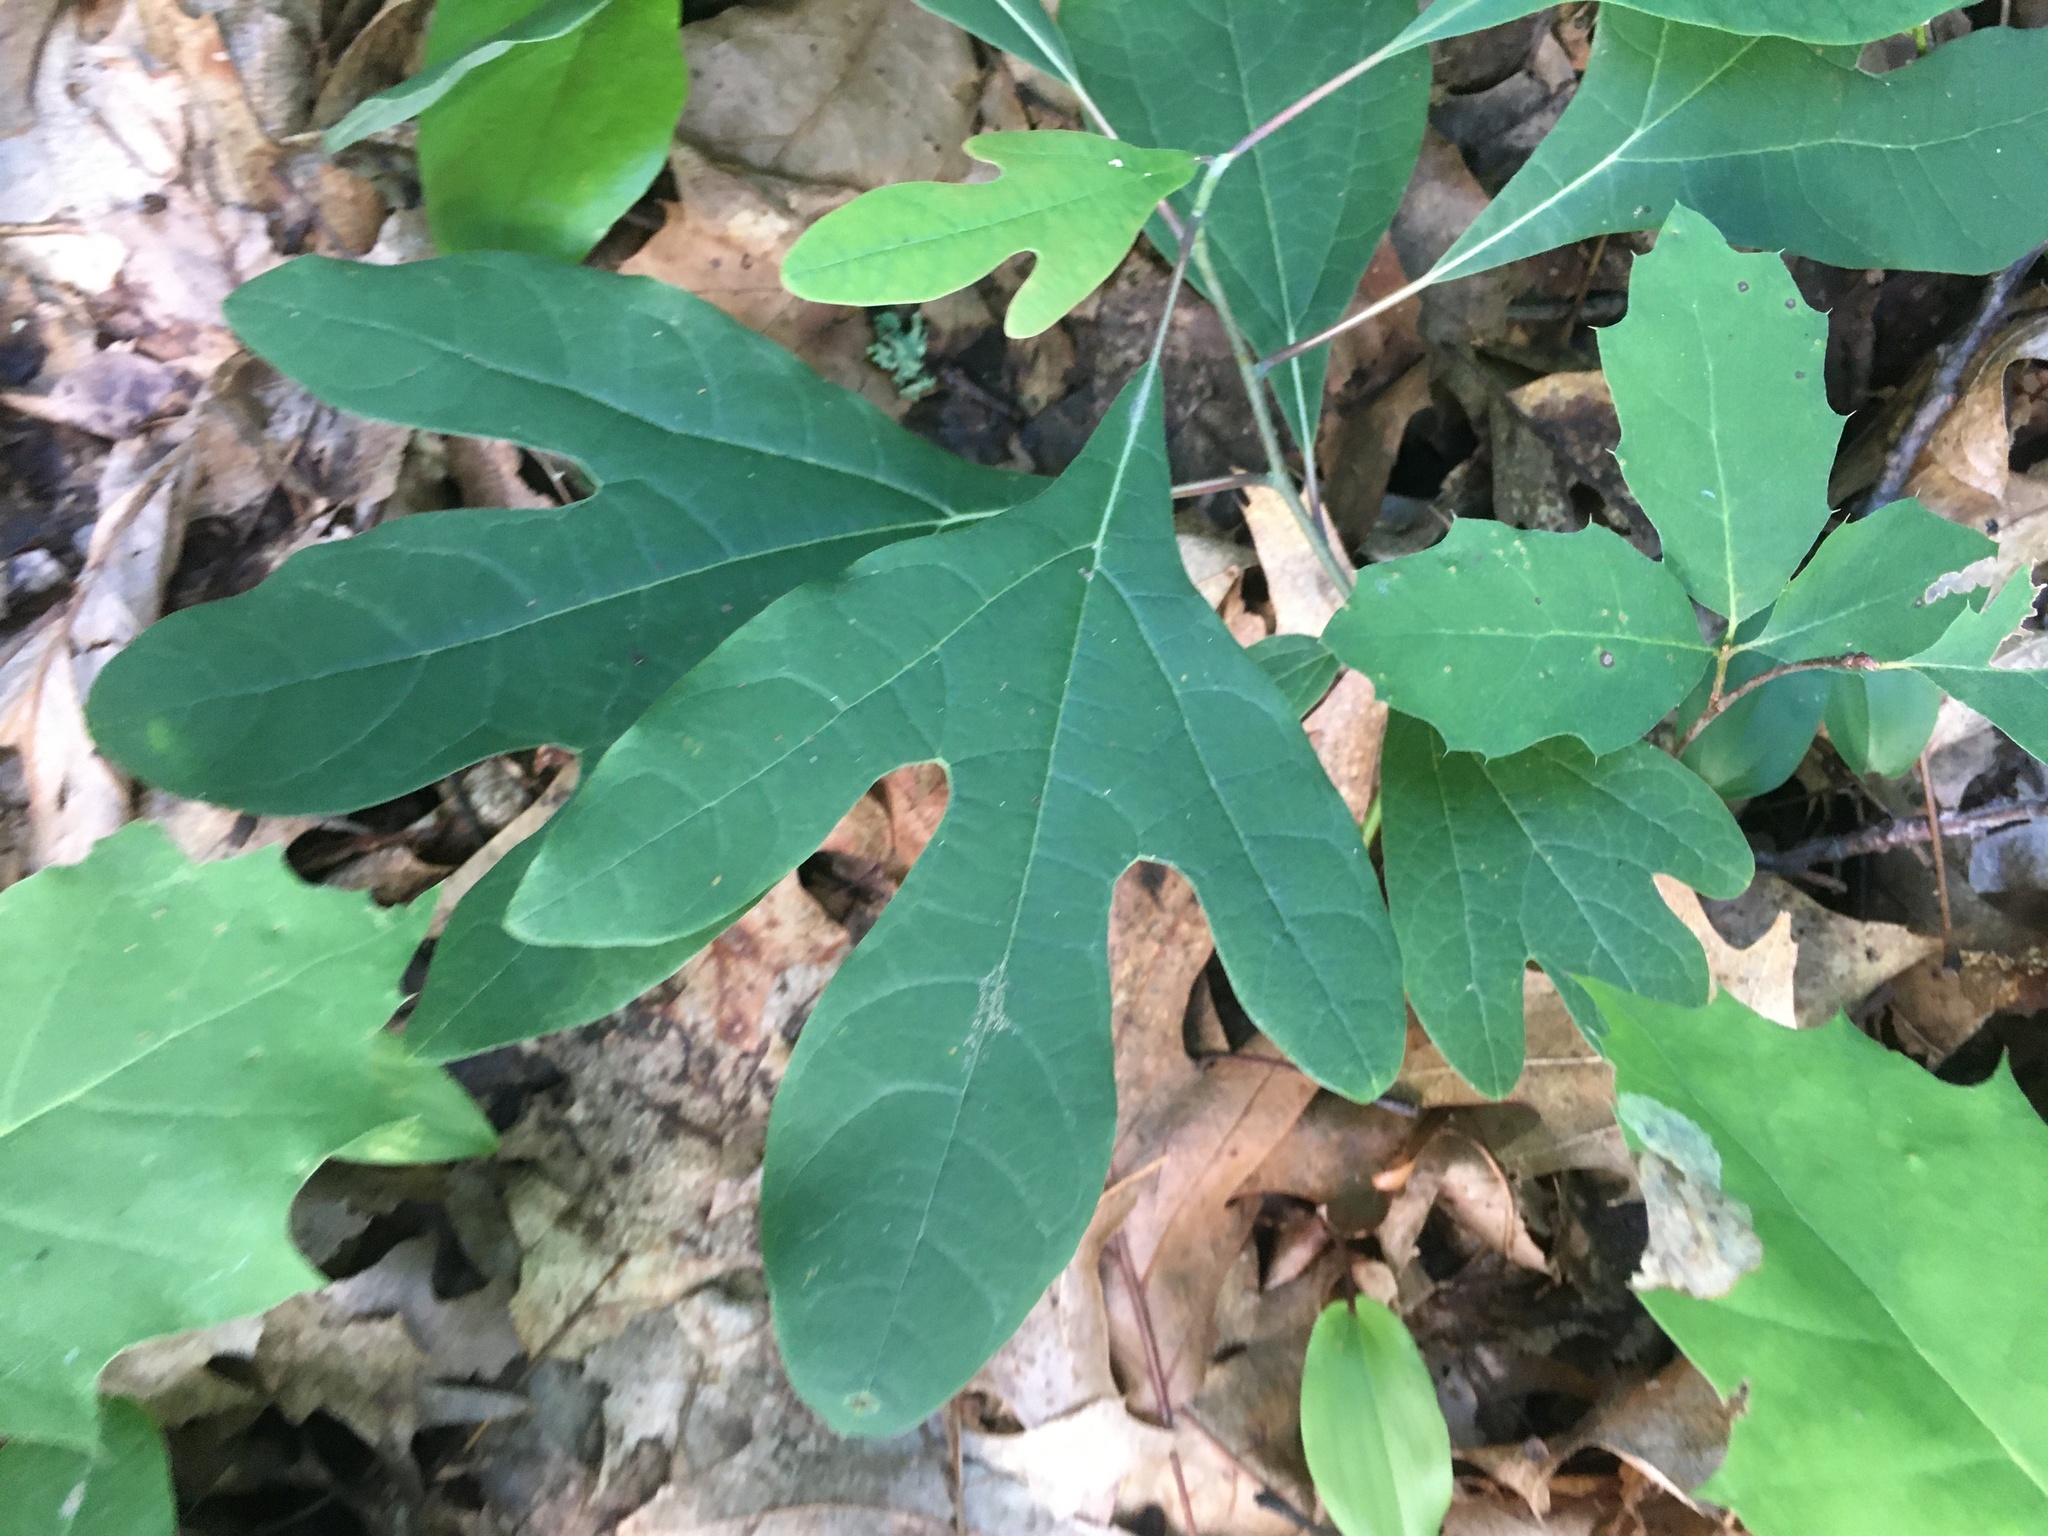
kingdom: Plantae
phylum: Tracheophyta
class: Magnoliopsida
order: Laurales
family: Lauraceae
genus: Sassafras
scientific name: Sassafras albidum
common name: Sassafras
